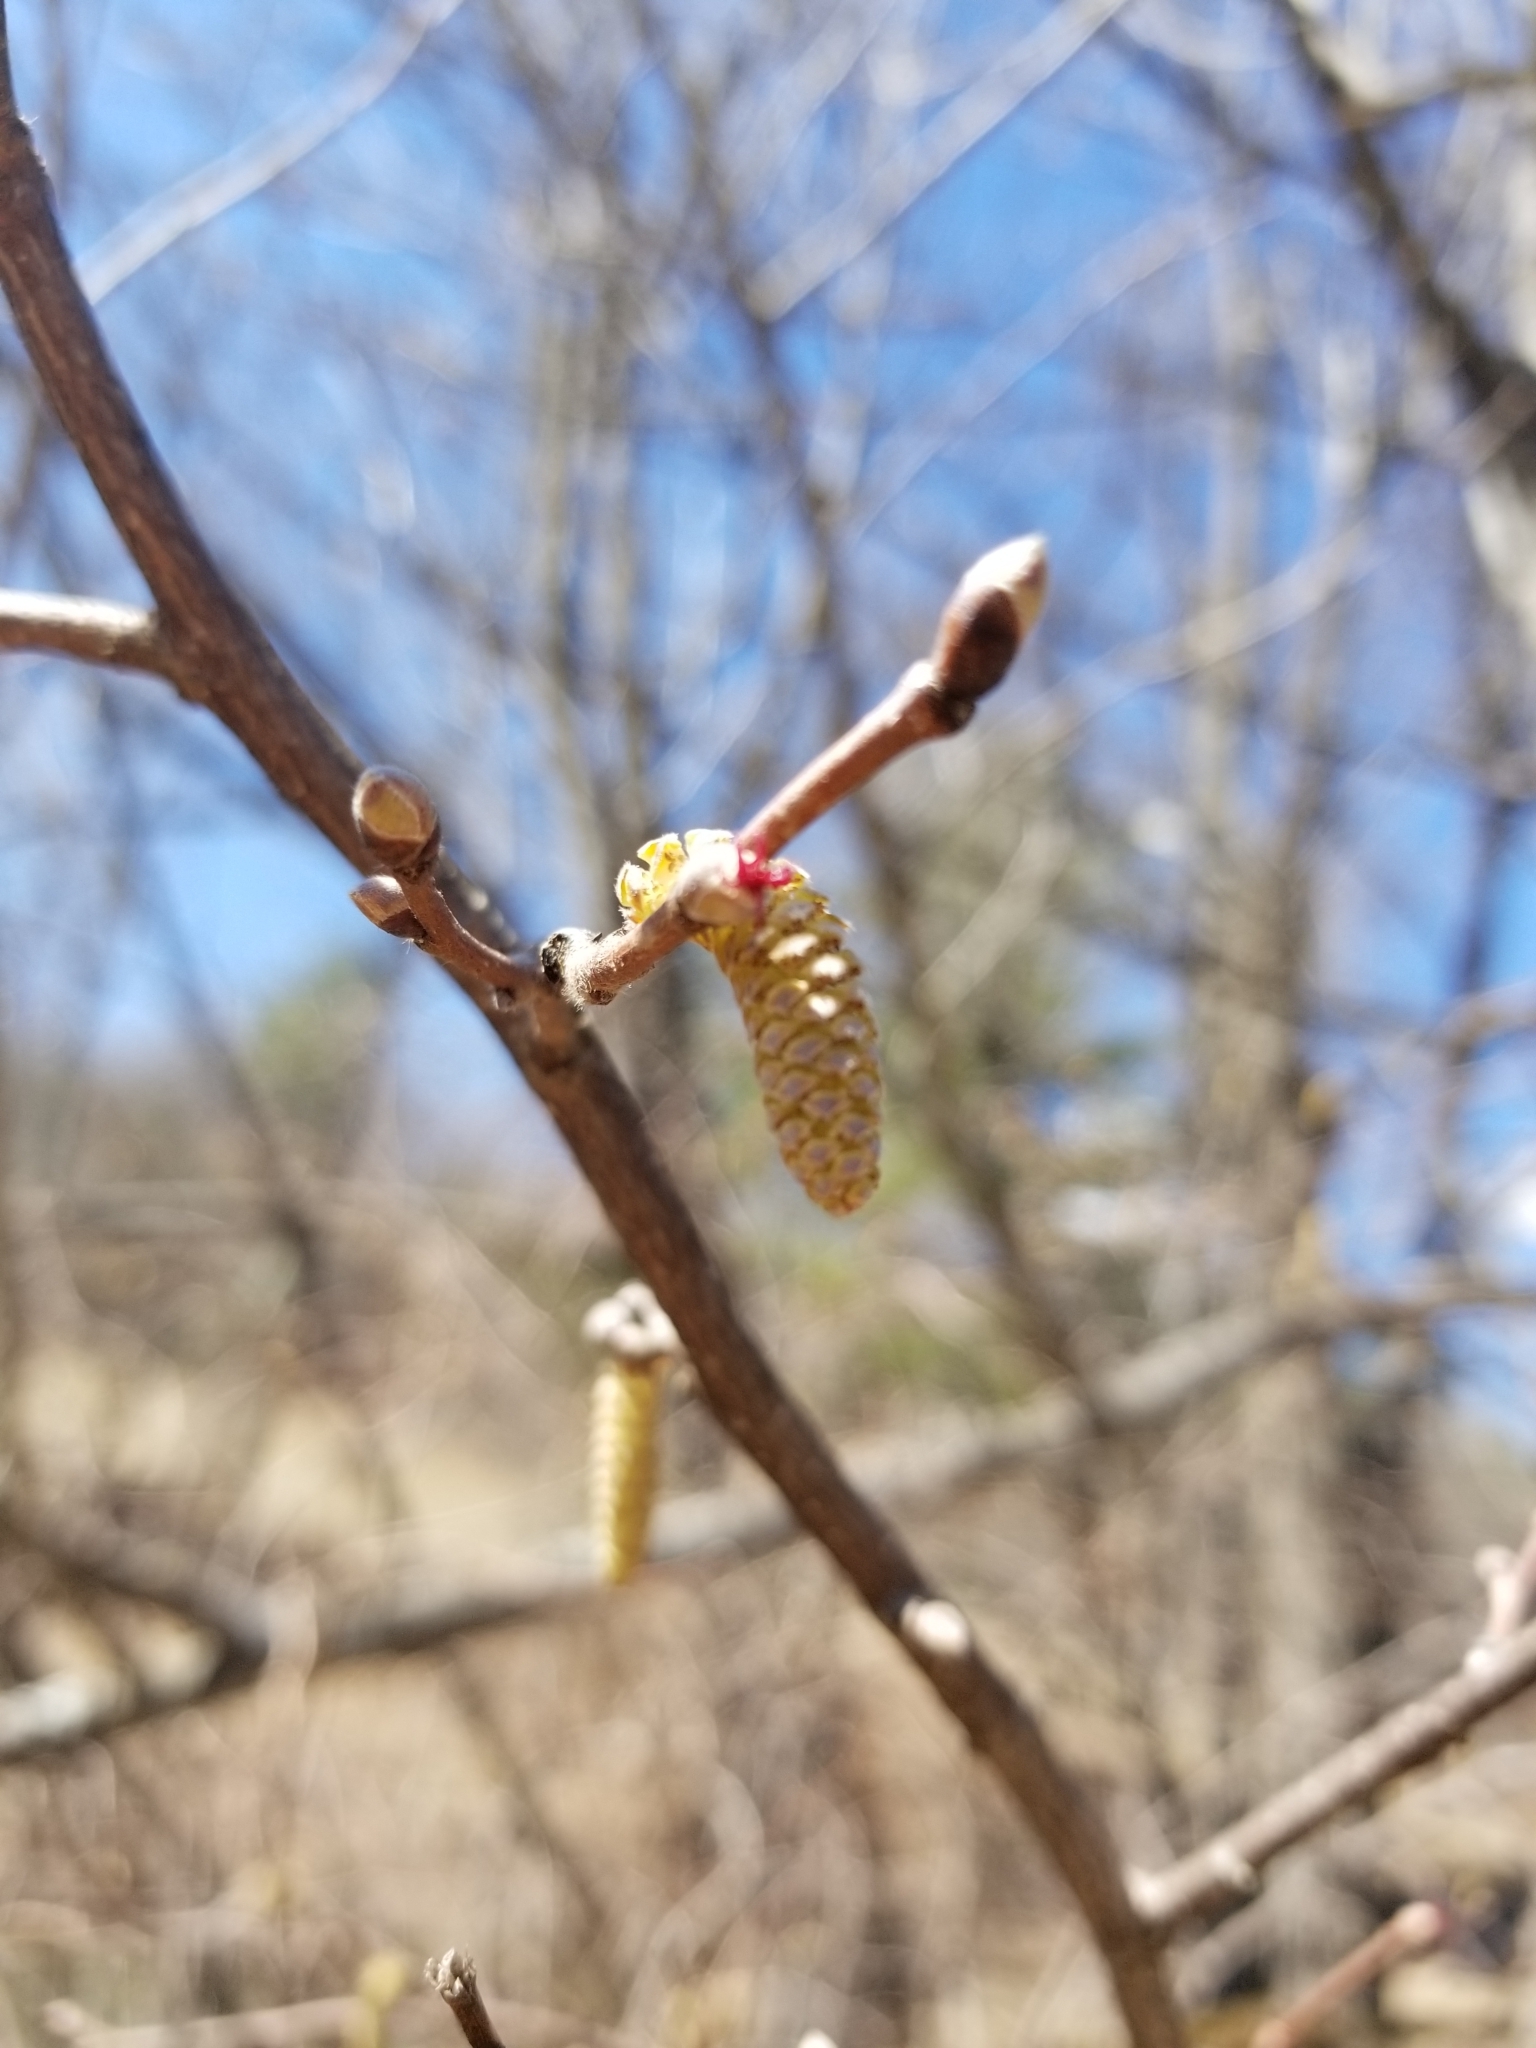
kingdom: Plantae
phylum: Tracheophyta
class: Magnoliopsida
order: Fagales
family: Betulaceae
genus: Corylus
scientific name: Corylus cornuta
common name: Beaked hazel
